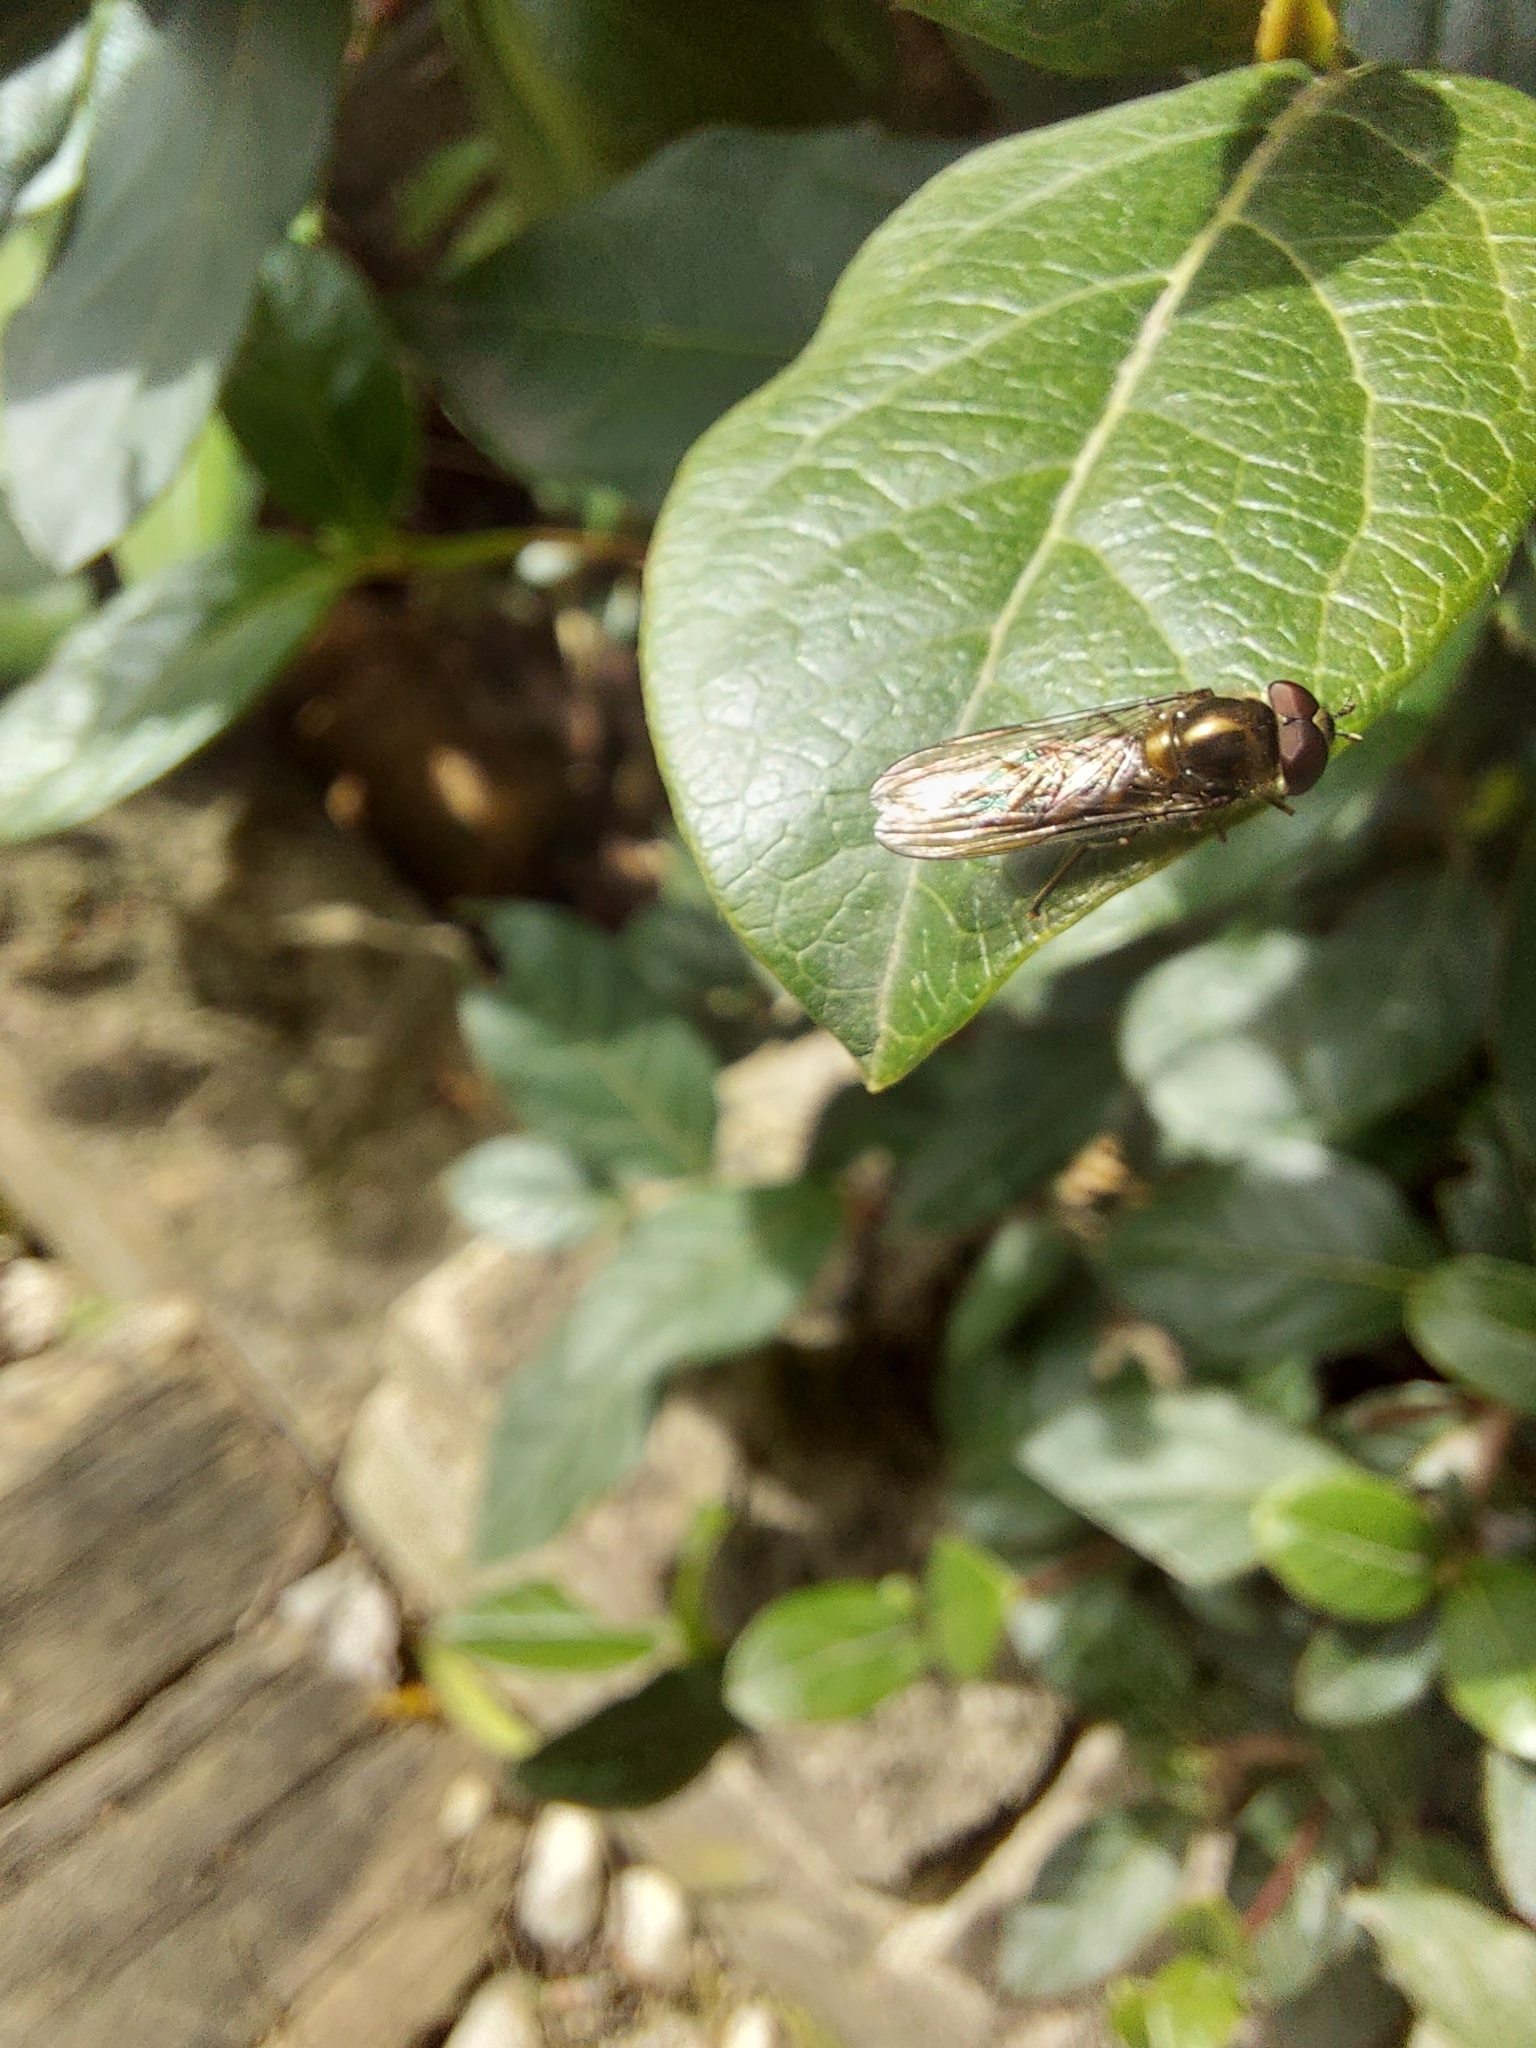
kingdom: Animalia
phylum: Arthropoda
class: Insecta
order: Diptera
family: Syrphidae
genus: Meliscaeva
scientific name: Meliscaeva auricollis
